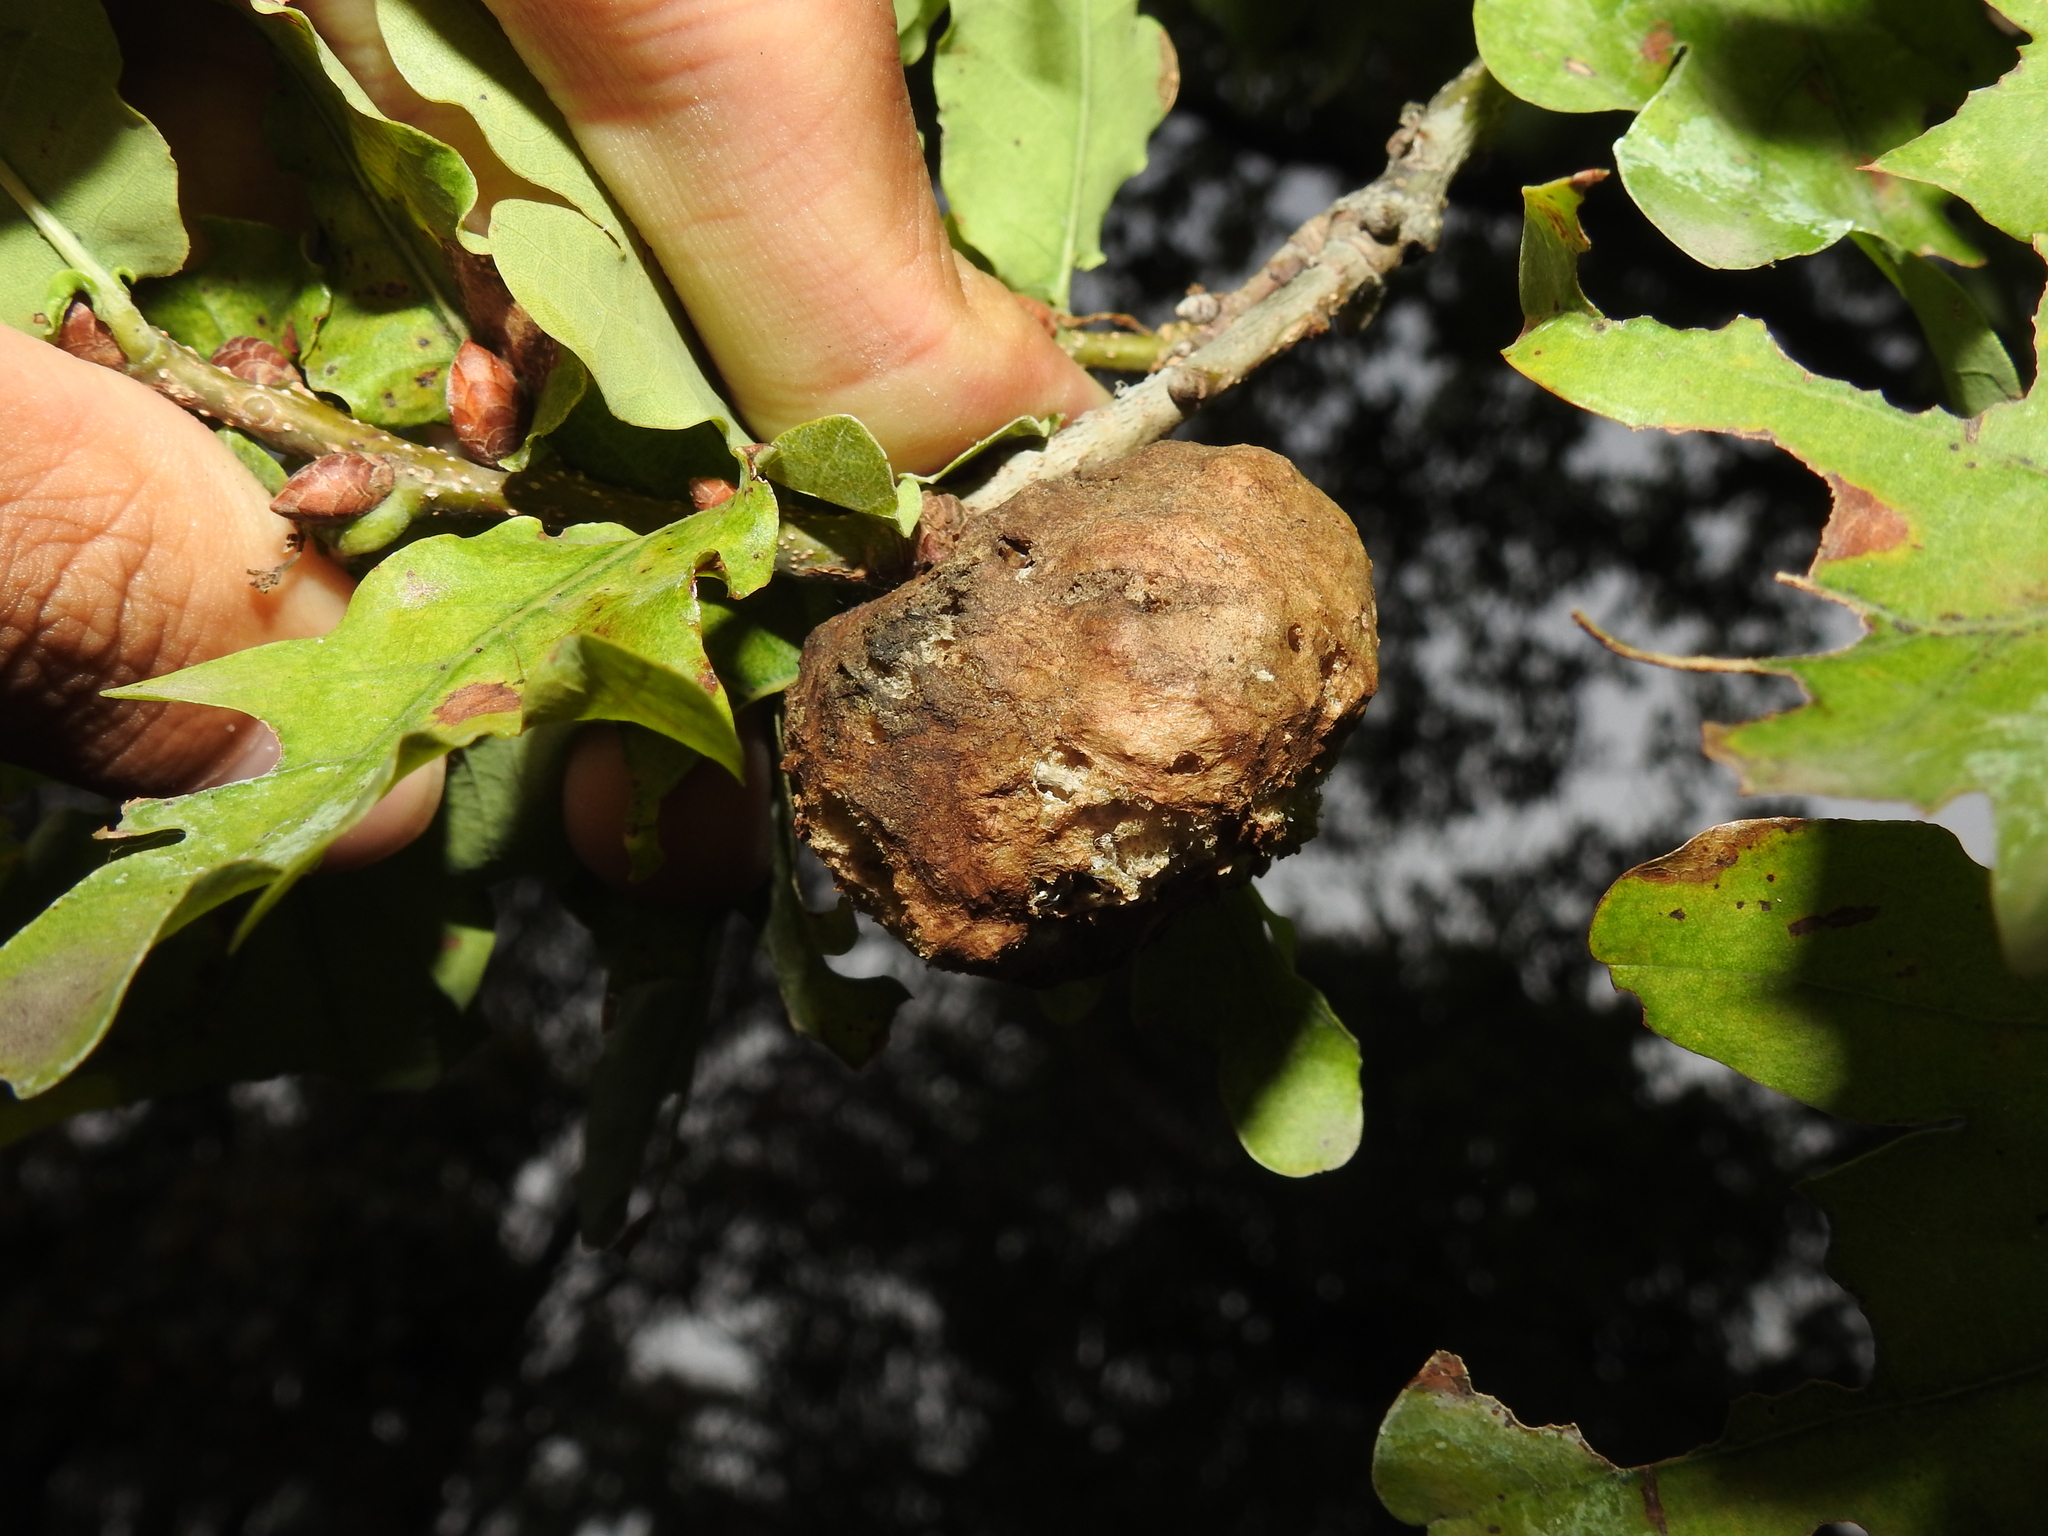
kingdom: Animalia
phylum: Arthropoda
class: Insecta
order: Hymenoptera
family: Cynipidae
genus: Biorhiza
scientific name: Biorhiza pallida
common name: Oak apple
